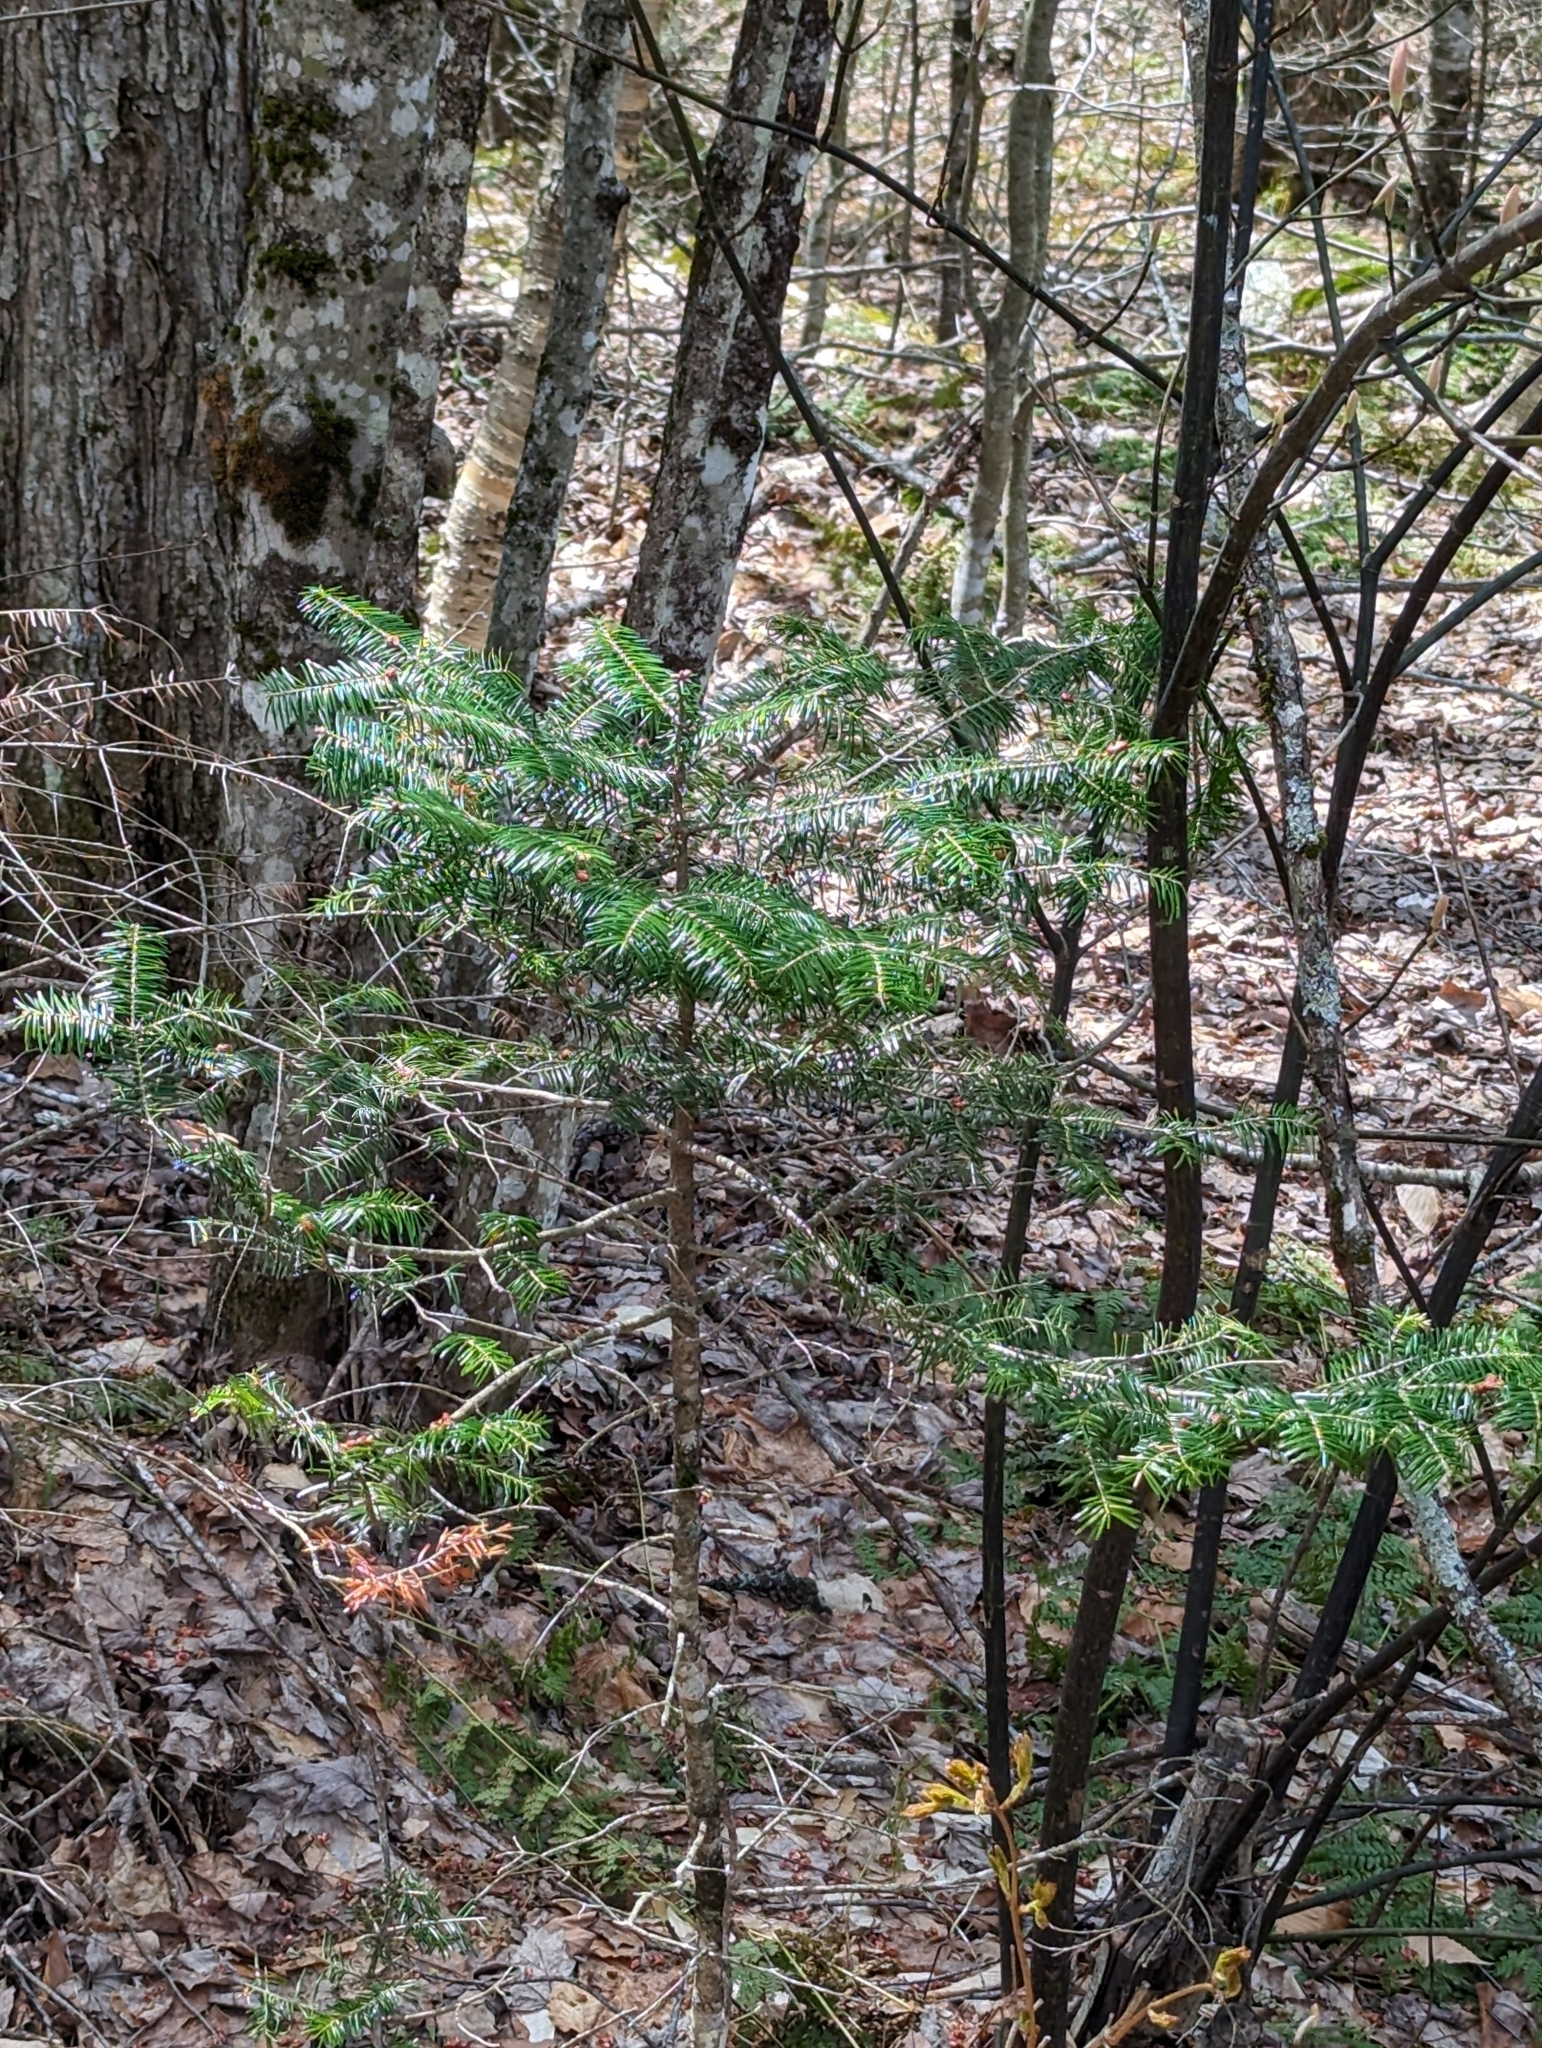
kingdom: Plantae
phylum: Tracheophyta
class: Pinopsida
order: Pinales
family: Pinaceae
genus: Abies
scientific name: Abies balsamea
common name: Balsam fir
